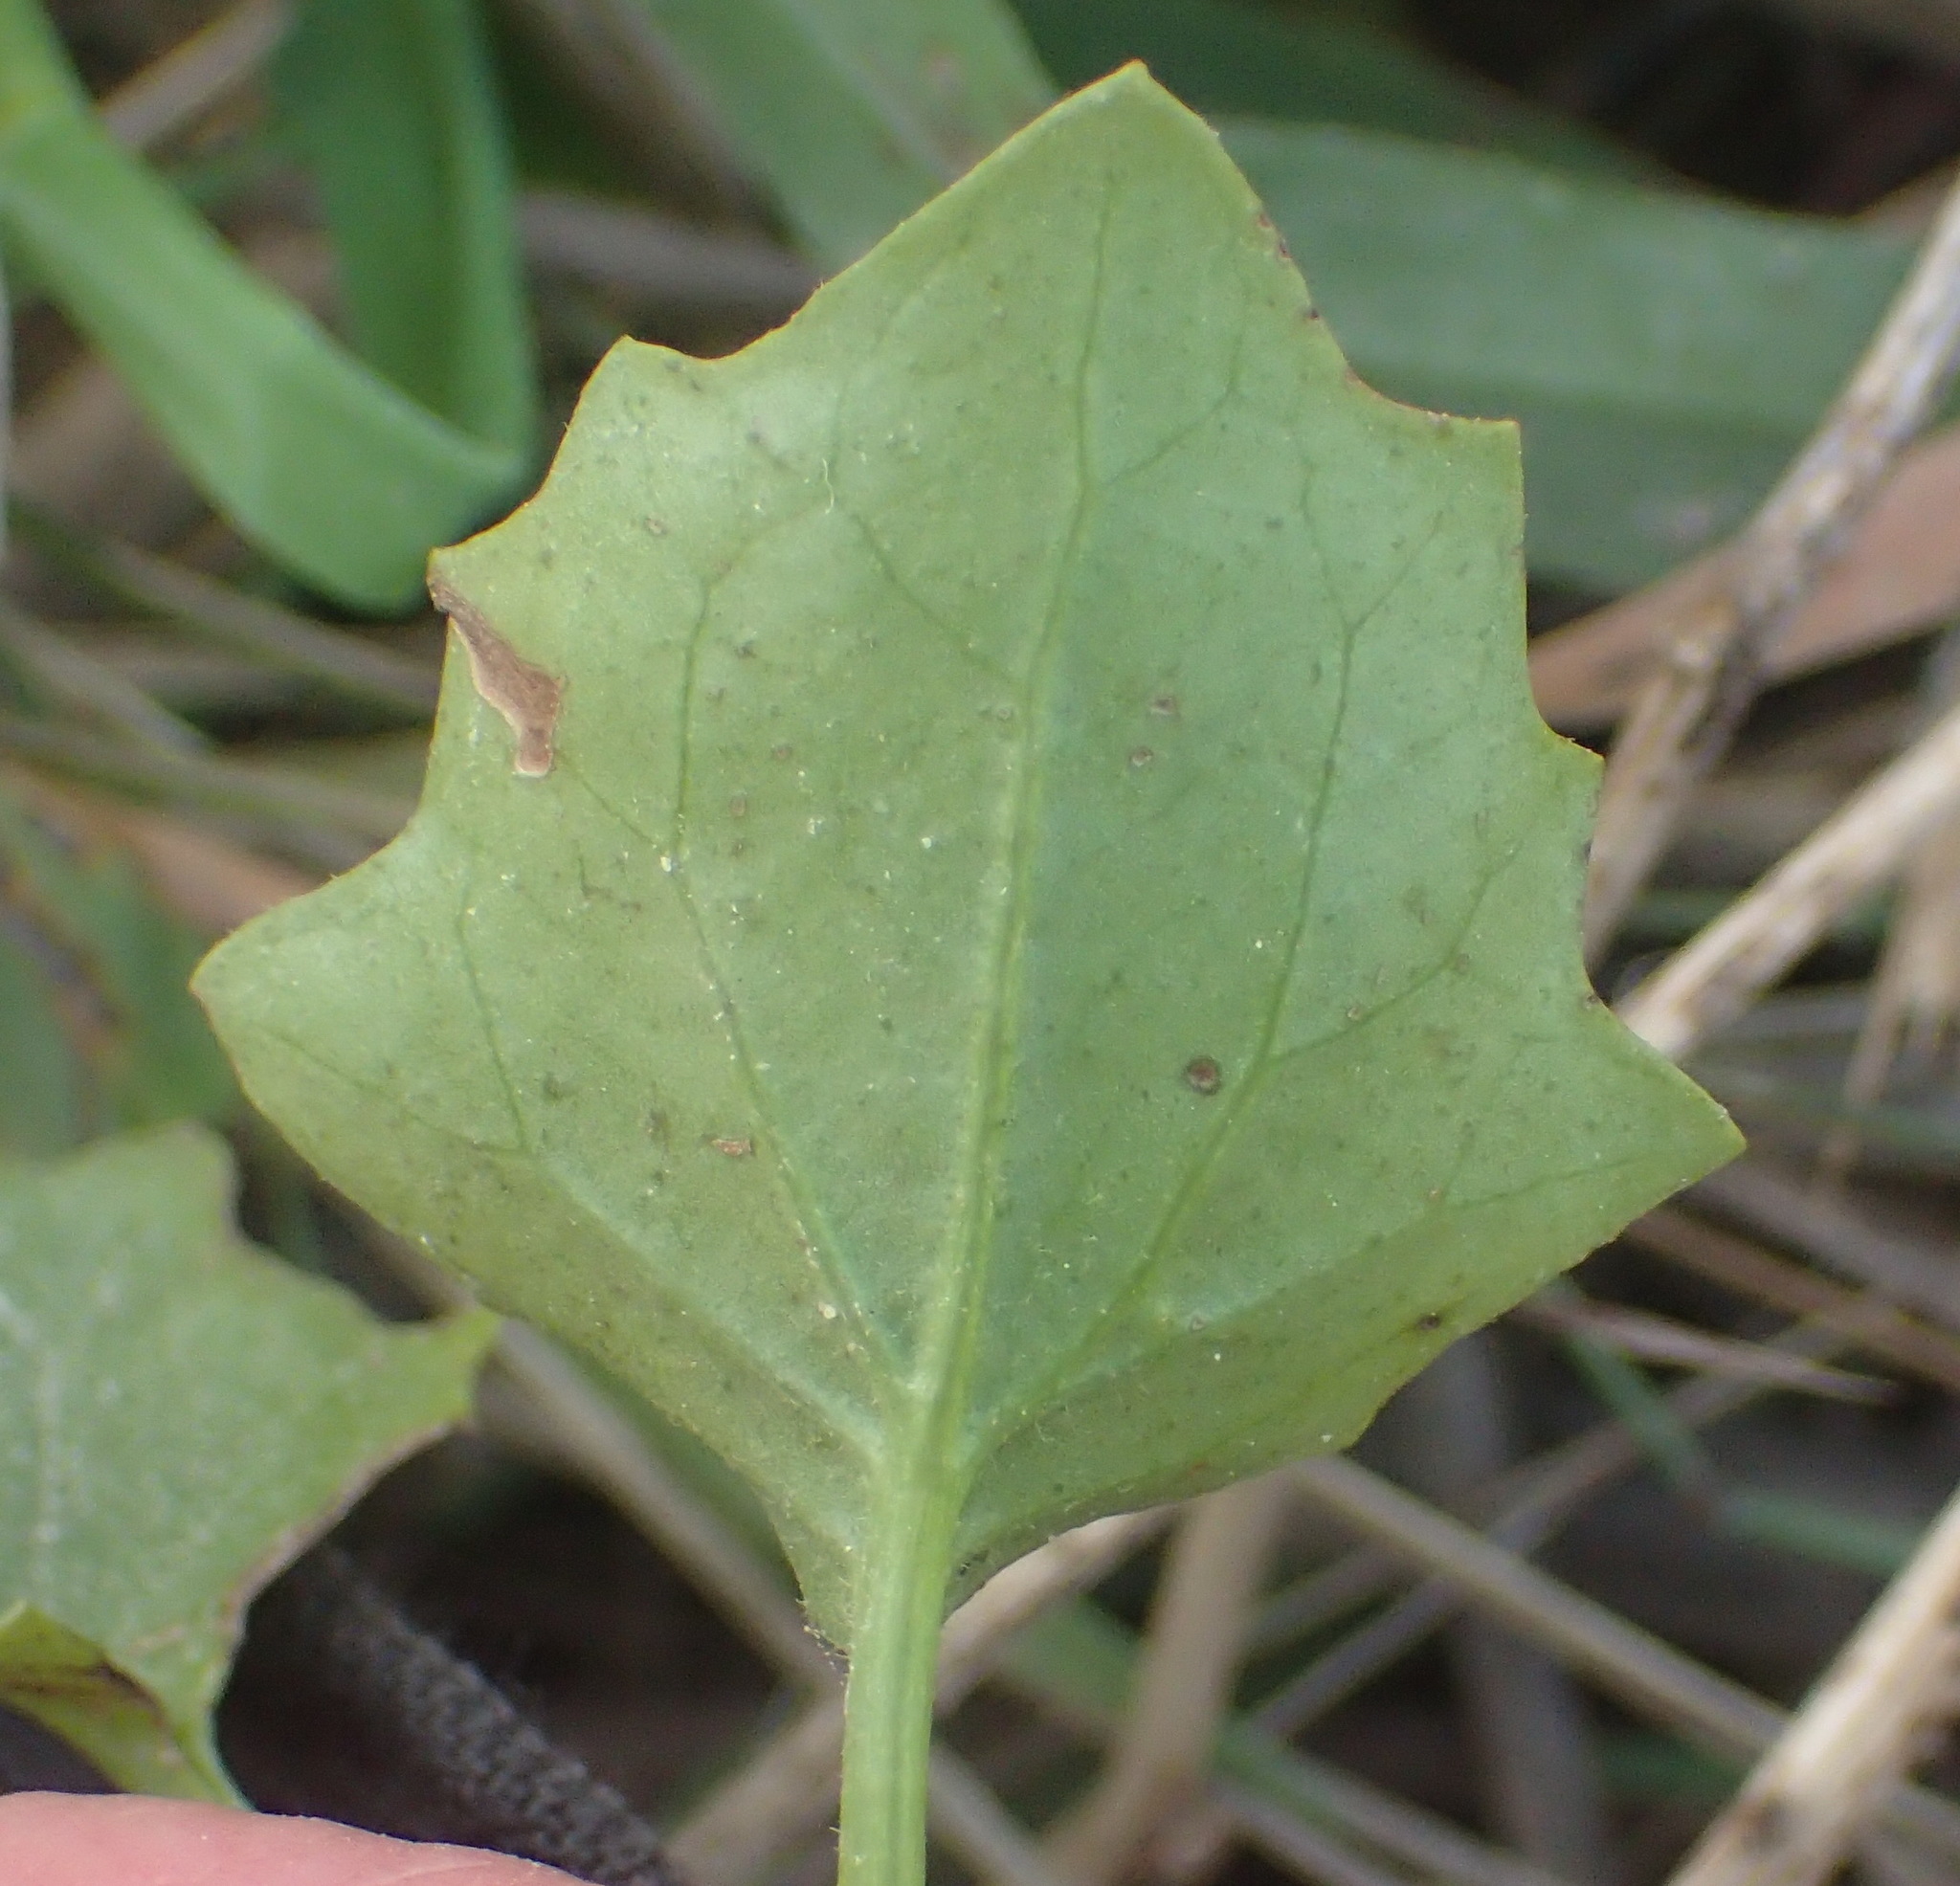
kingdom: Plantae
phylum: Tracheophyta
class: Magnoliopsida
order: Asterales
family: Asteraceae
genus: Senecio
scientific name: Senecio angulatus
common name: Climbing groundsel
